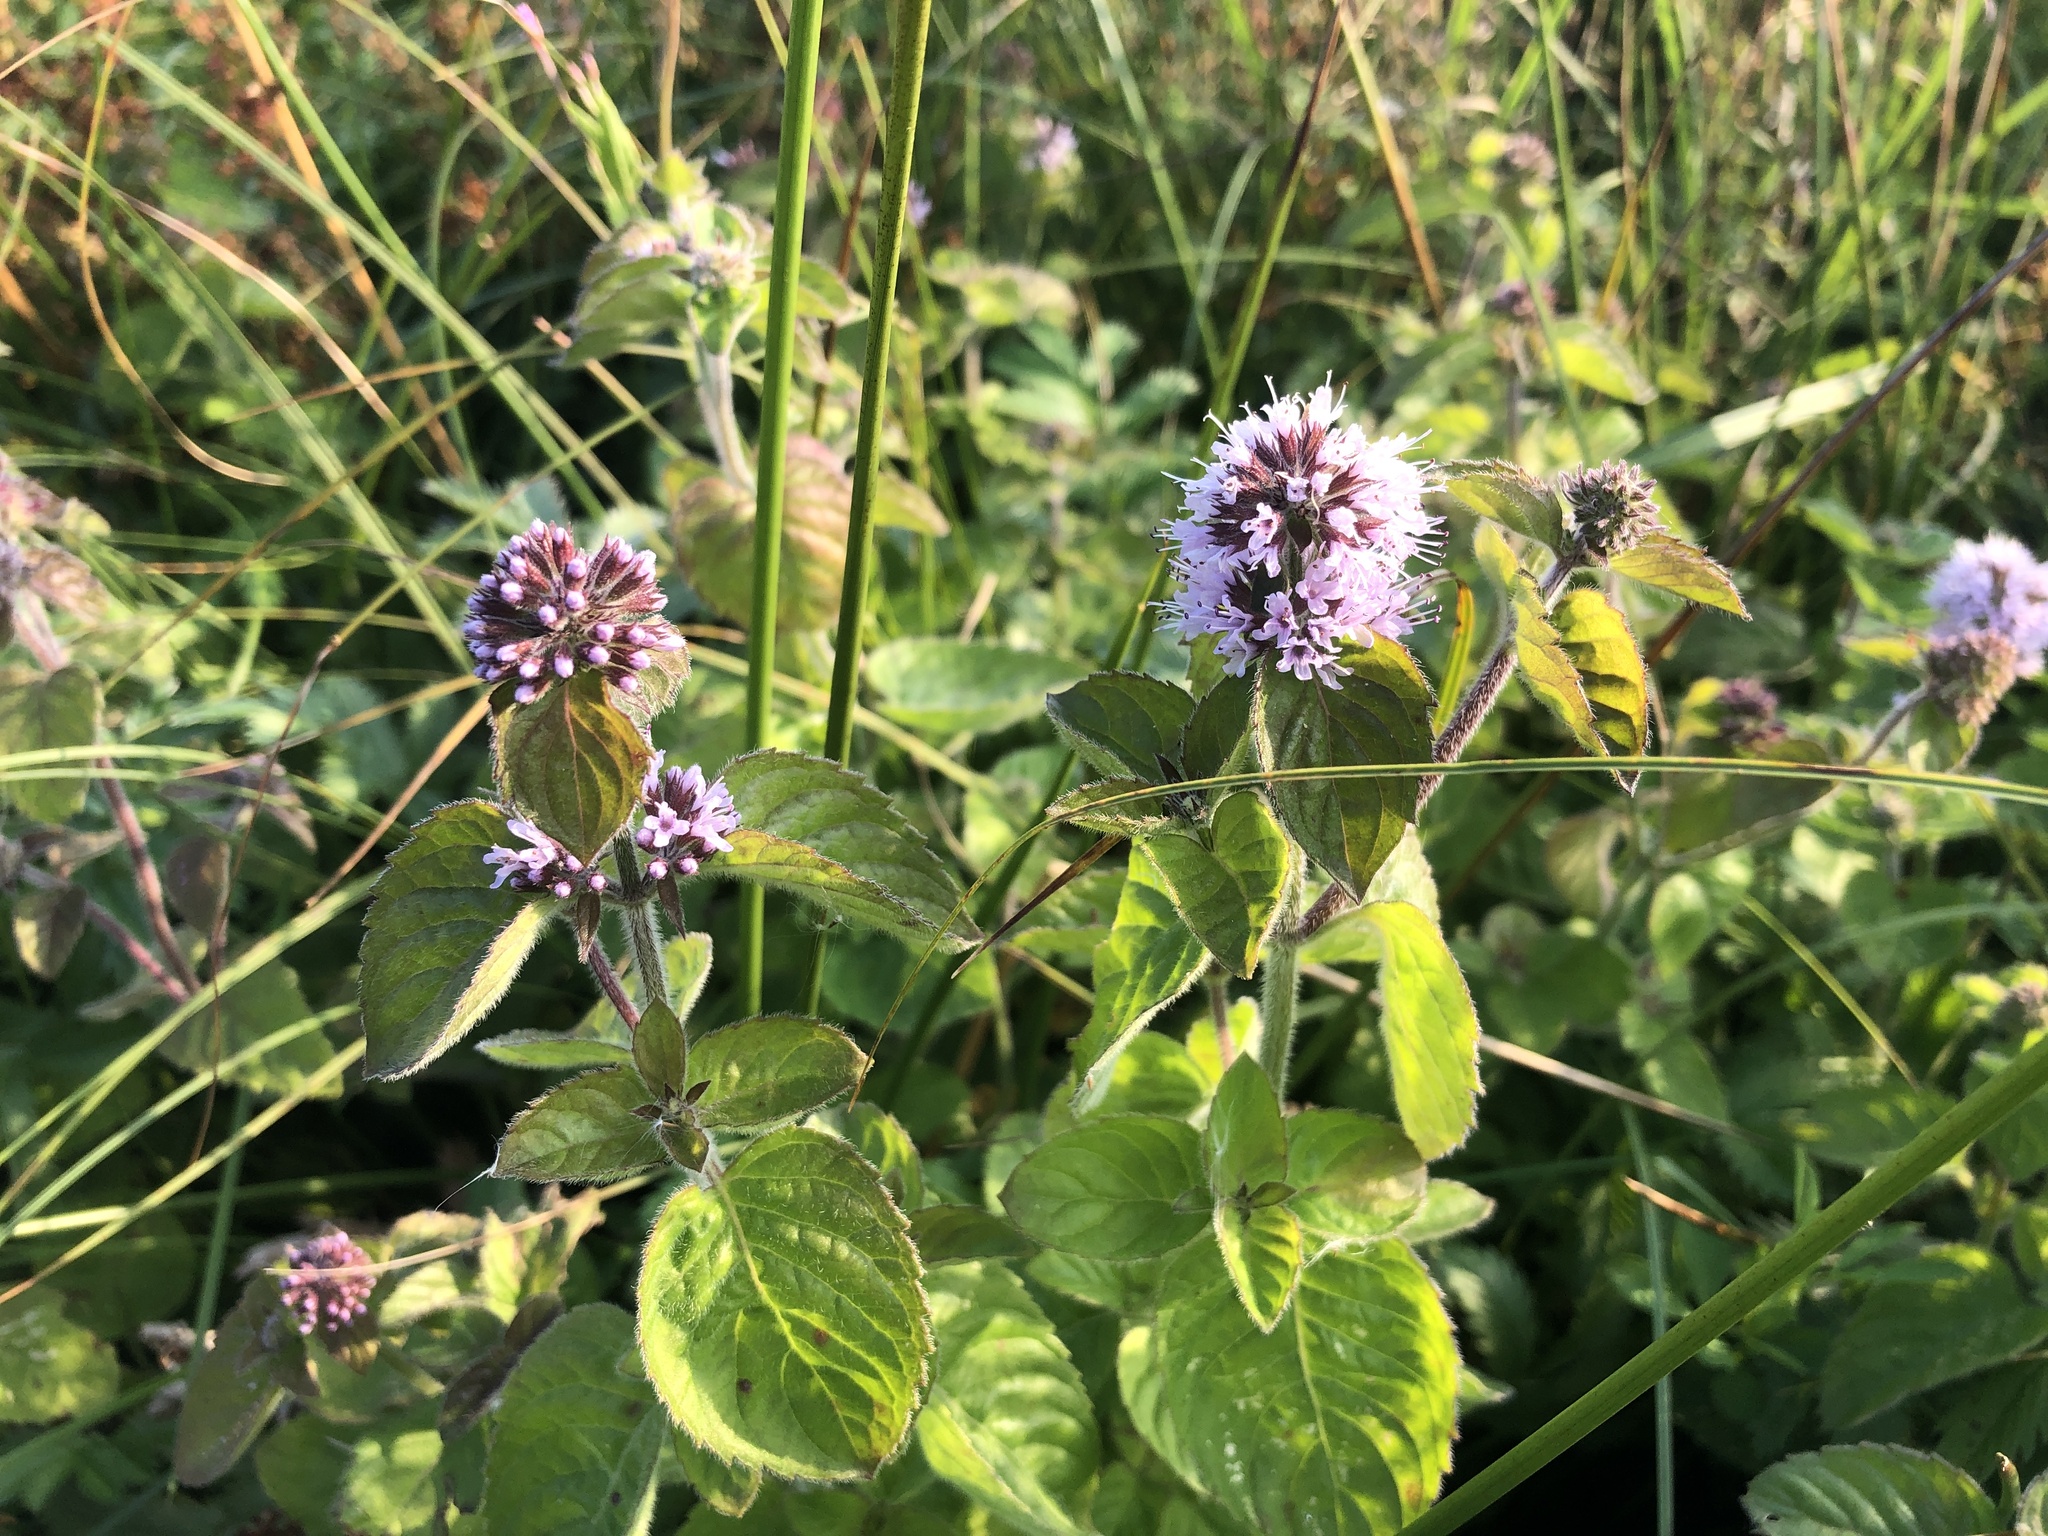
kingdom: Plantae
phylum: Tracheophyta
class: Magnoliopsida
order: Lamiales
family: Lamiaceae
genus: Mentha
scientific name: Mentha aquatica
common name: Water mint
